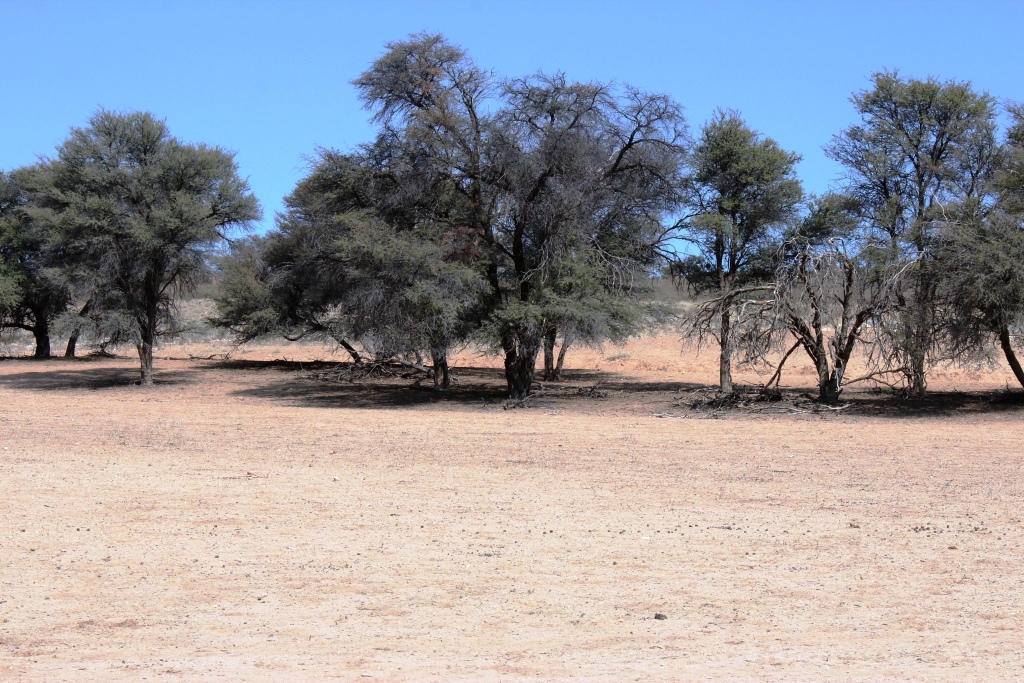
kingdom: Plantae
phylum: Tracheophyta
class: Magnoliopsida
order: Fabales
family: Fabaceae
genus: Vachellia
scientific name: Vachellia haematoxylon
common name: Grey camel thorn
